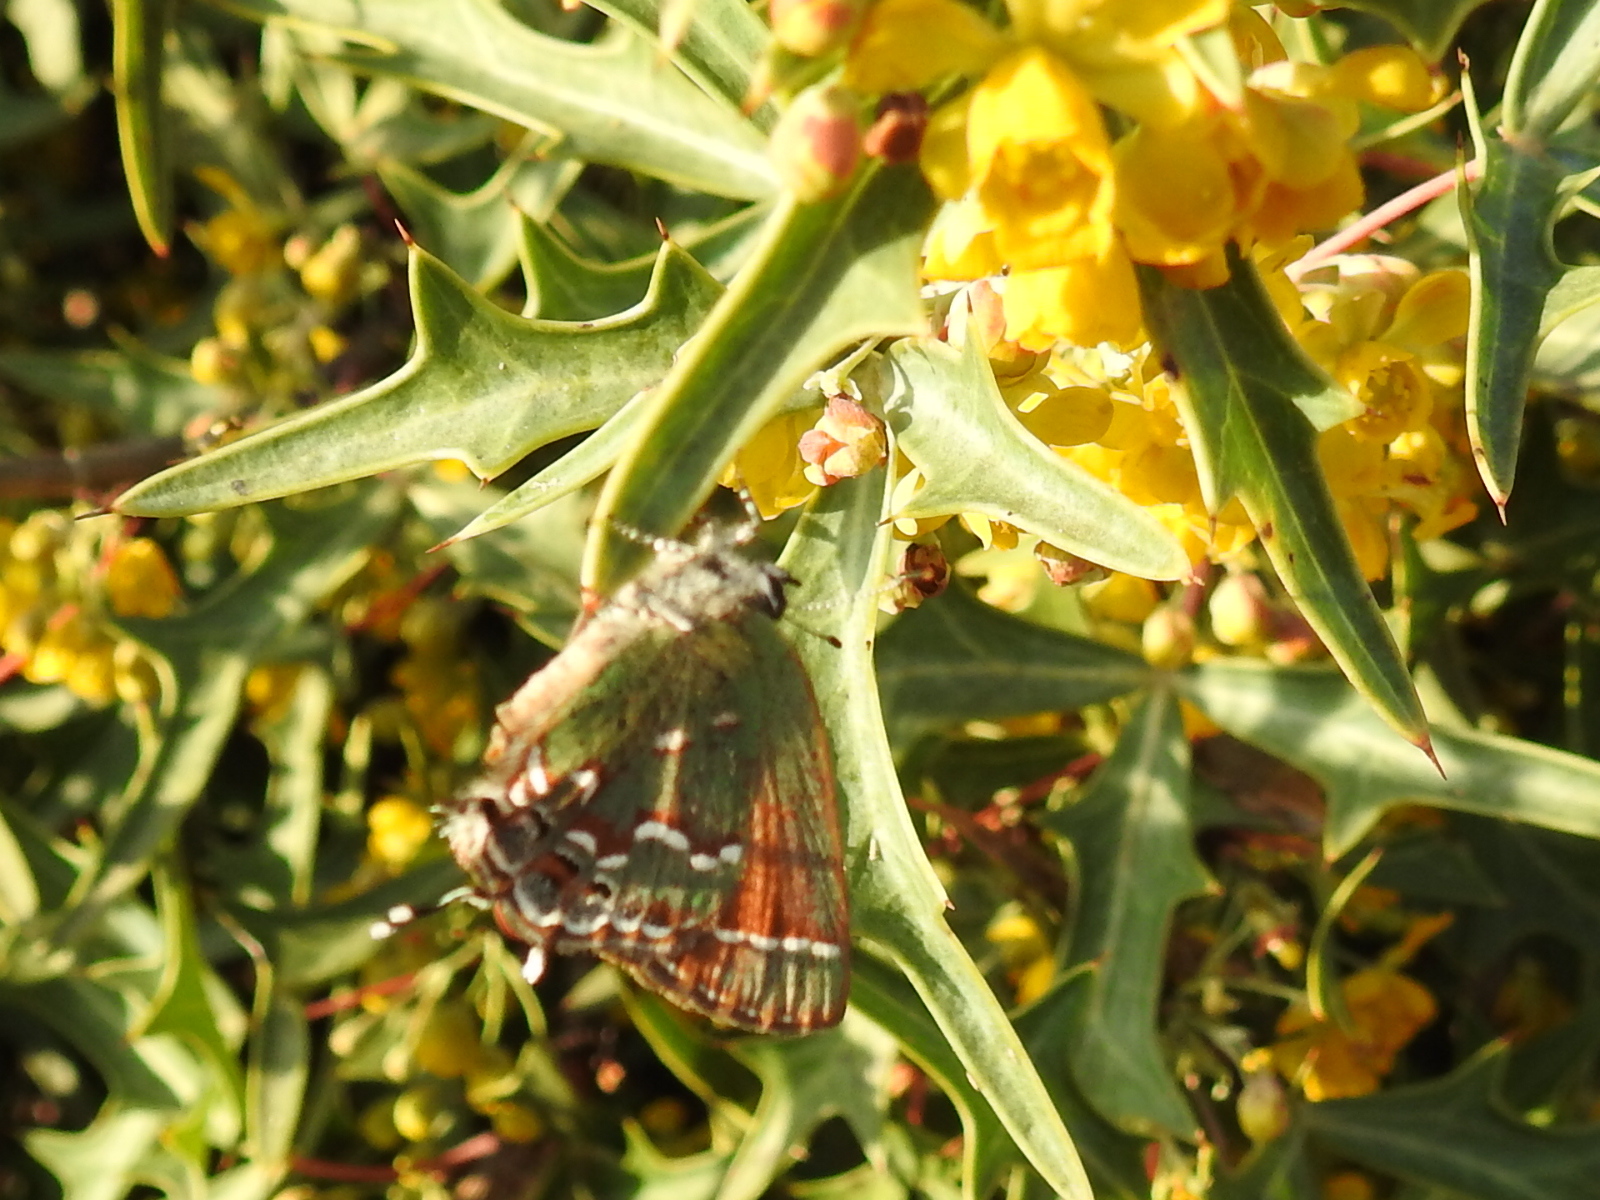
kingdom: Animalia
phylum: Arthropoda
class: Insecta
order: Lepidoptera
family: Lycaenidae
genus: Mitoura
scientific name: Mitoura gryneus
